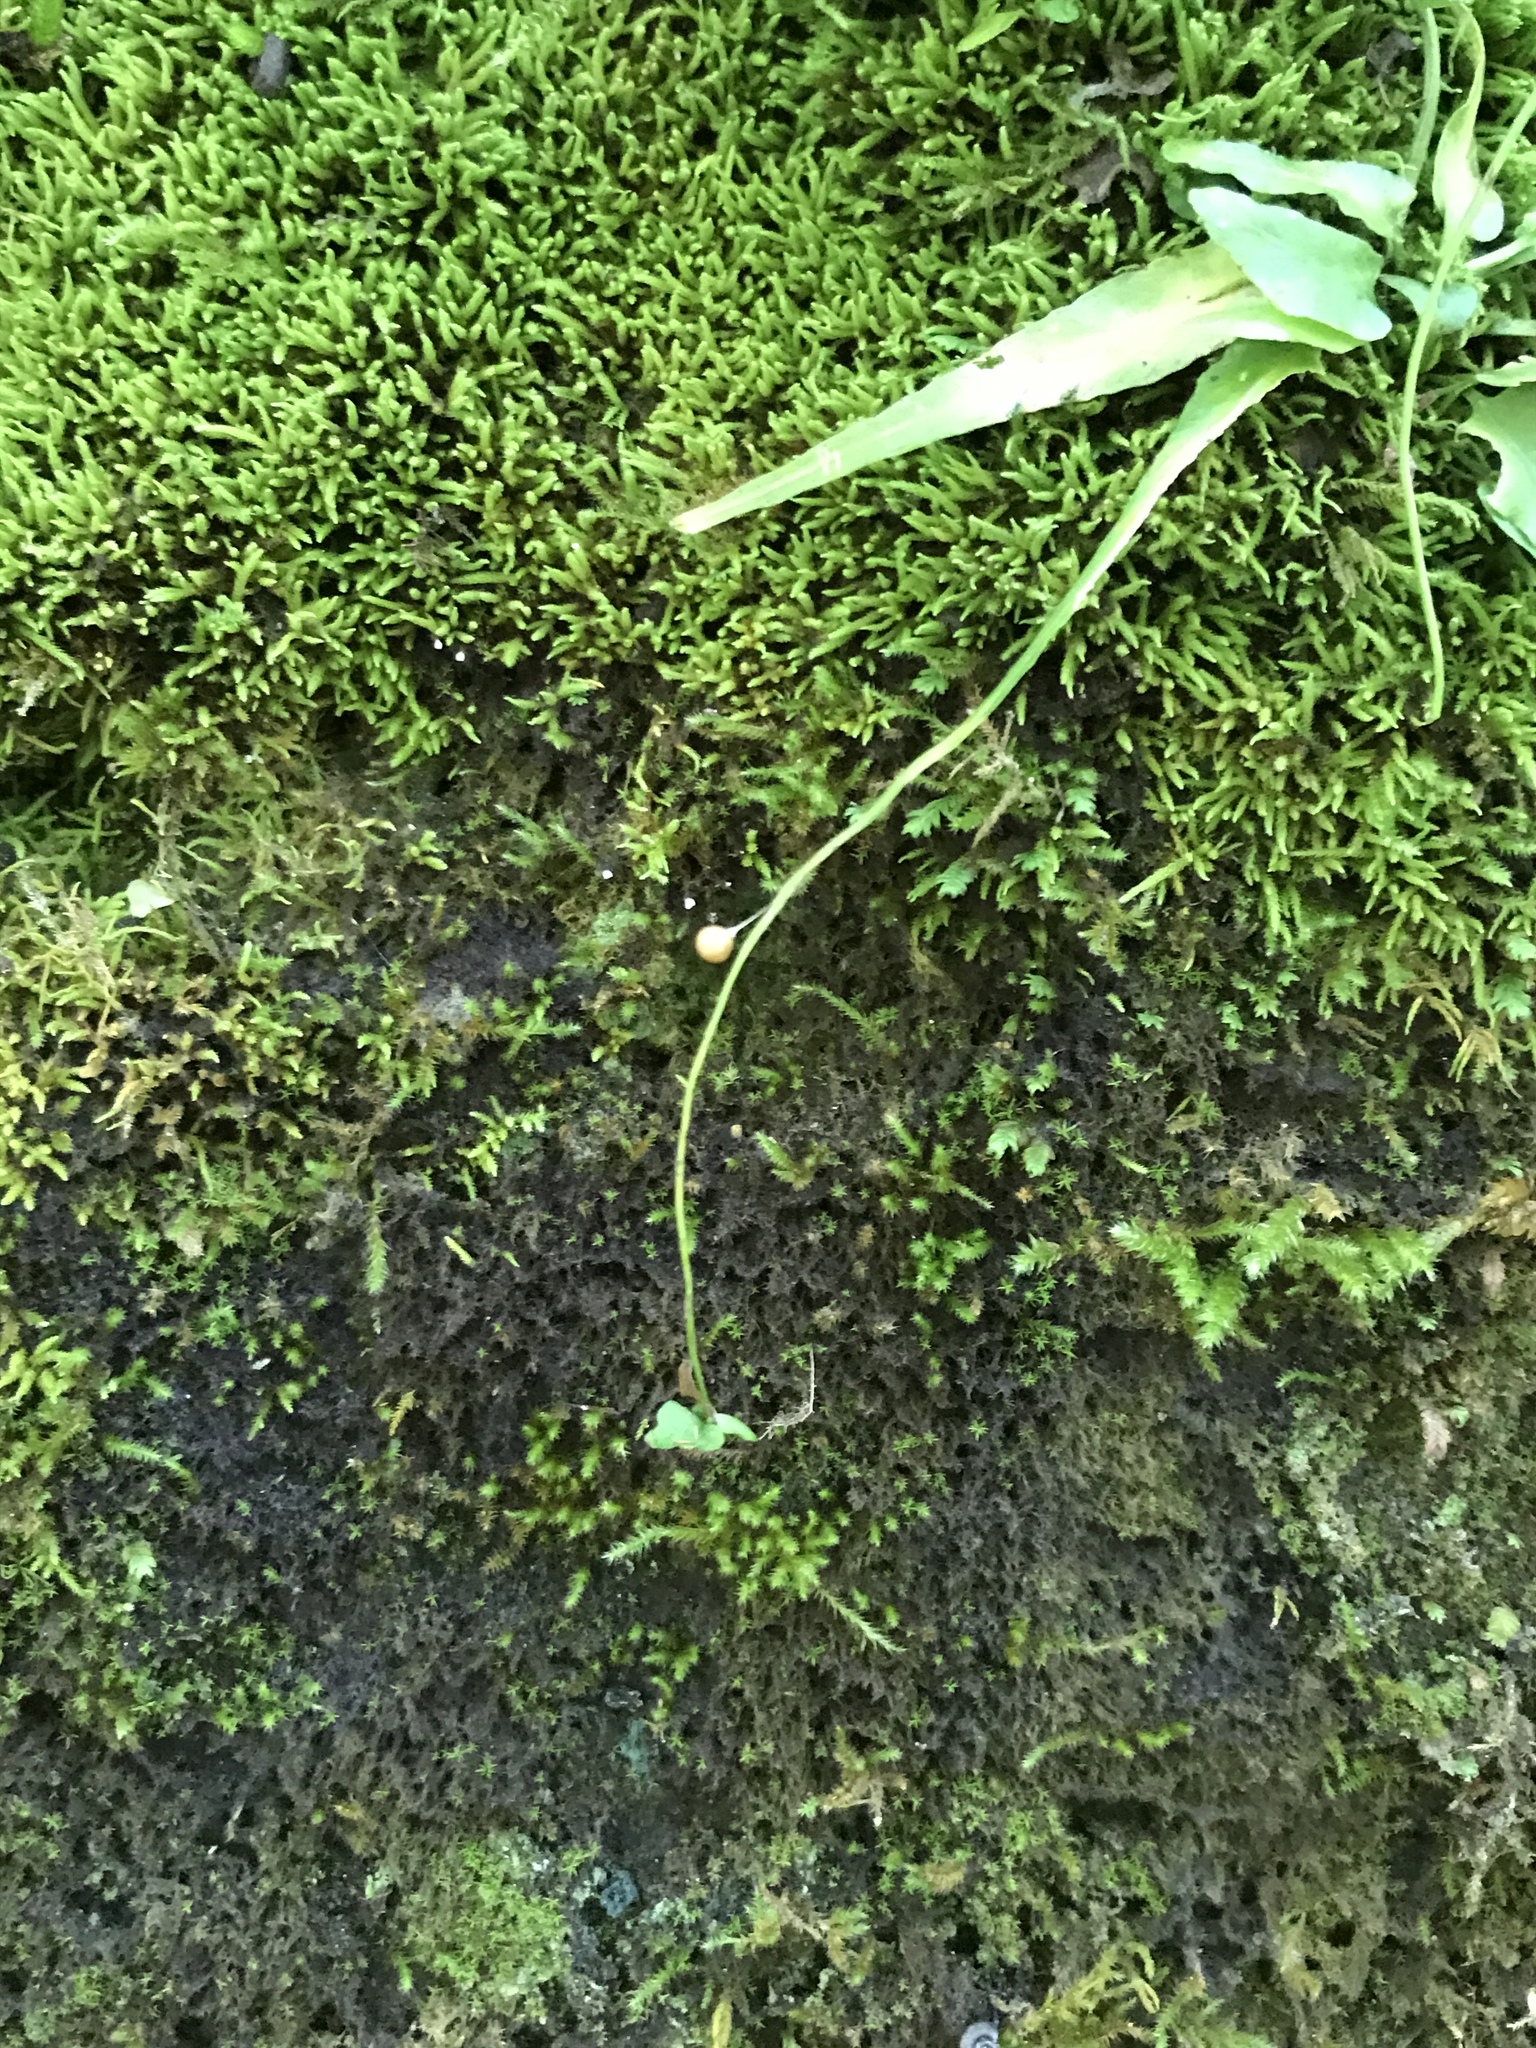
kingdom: Plantae
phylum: Tracheophyta
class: Polypodiopsida
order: Polypodiales
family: Aspleniaceae
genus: Asplenium
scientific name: Asplenium rhizophyllum
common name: Walking fern
